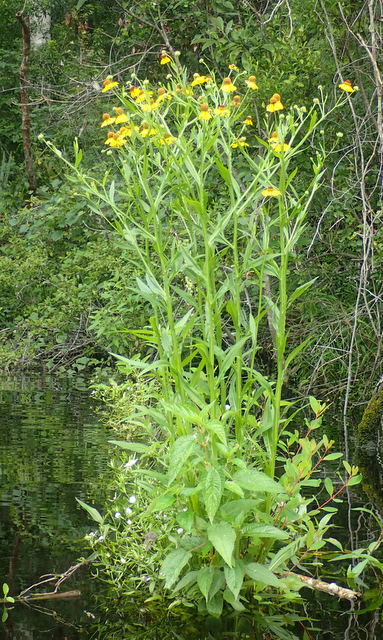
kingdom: Plantae
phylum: Tracheophyta
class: Magnoliopsida
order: Asterales
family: Asteraceae
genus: Helenium
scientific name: Helenium flexuosum
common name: Naked-flowered sneezeweed
